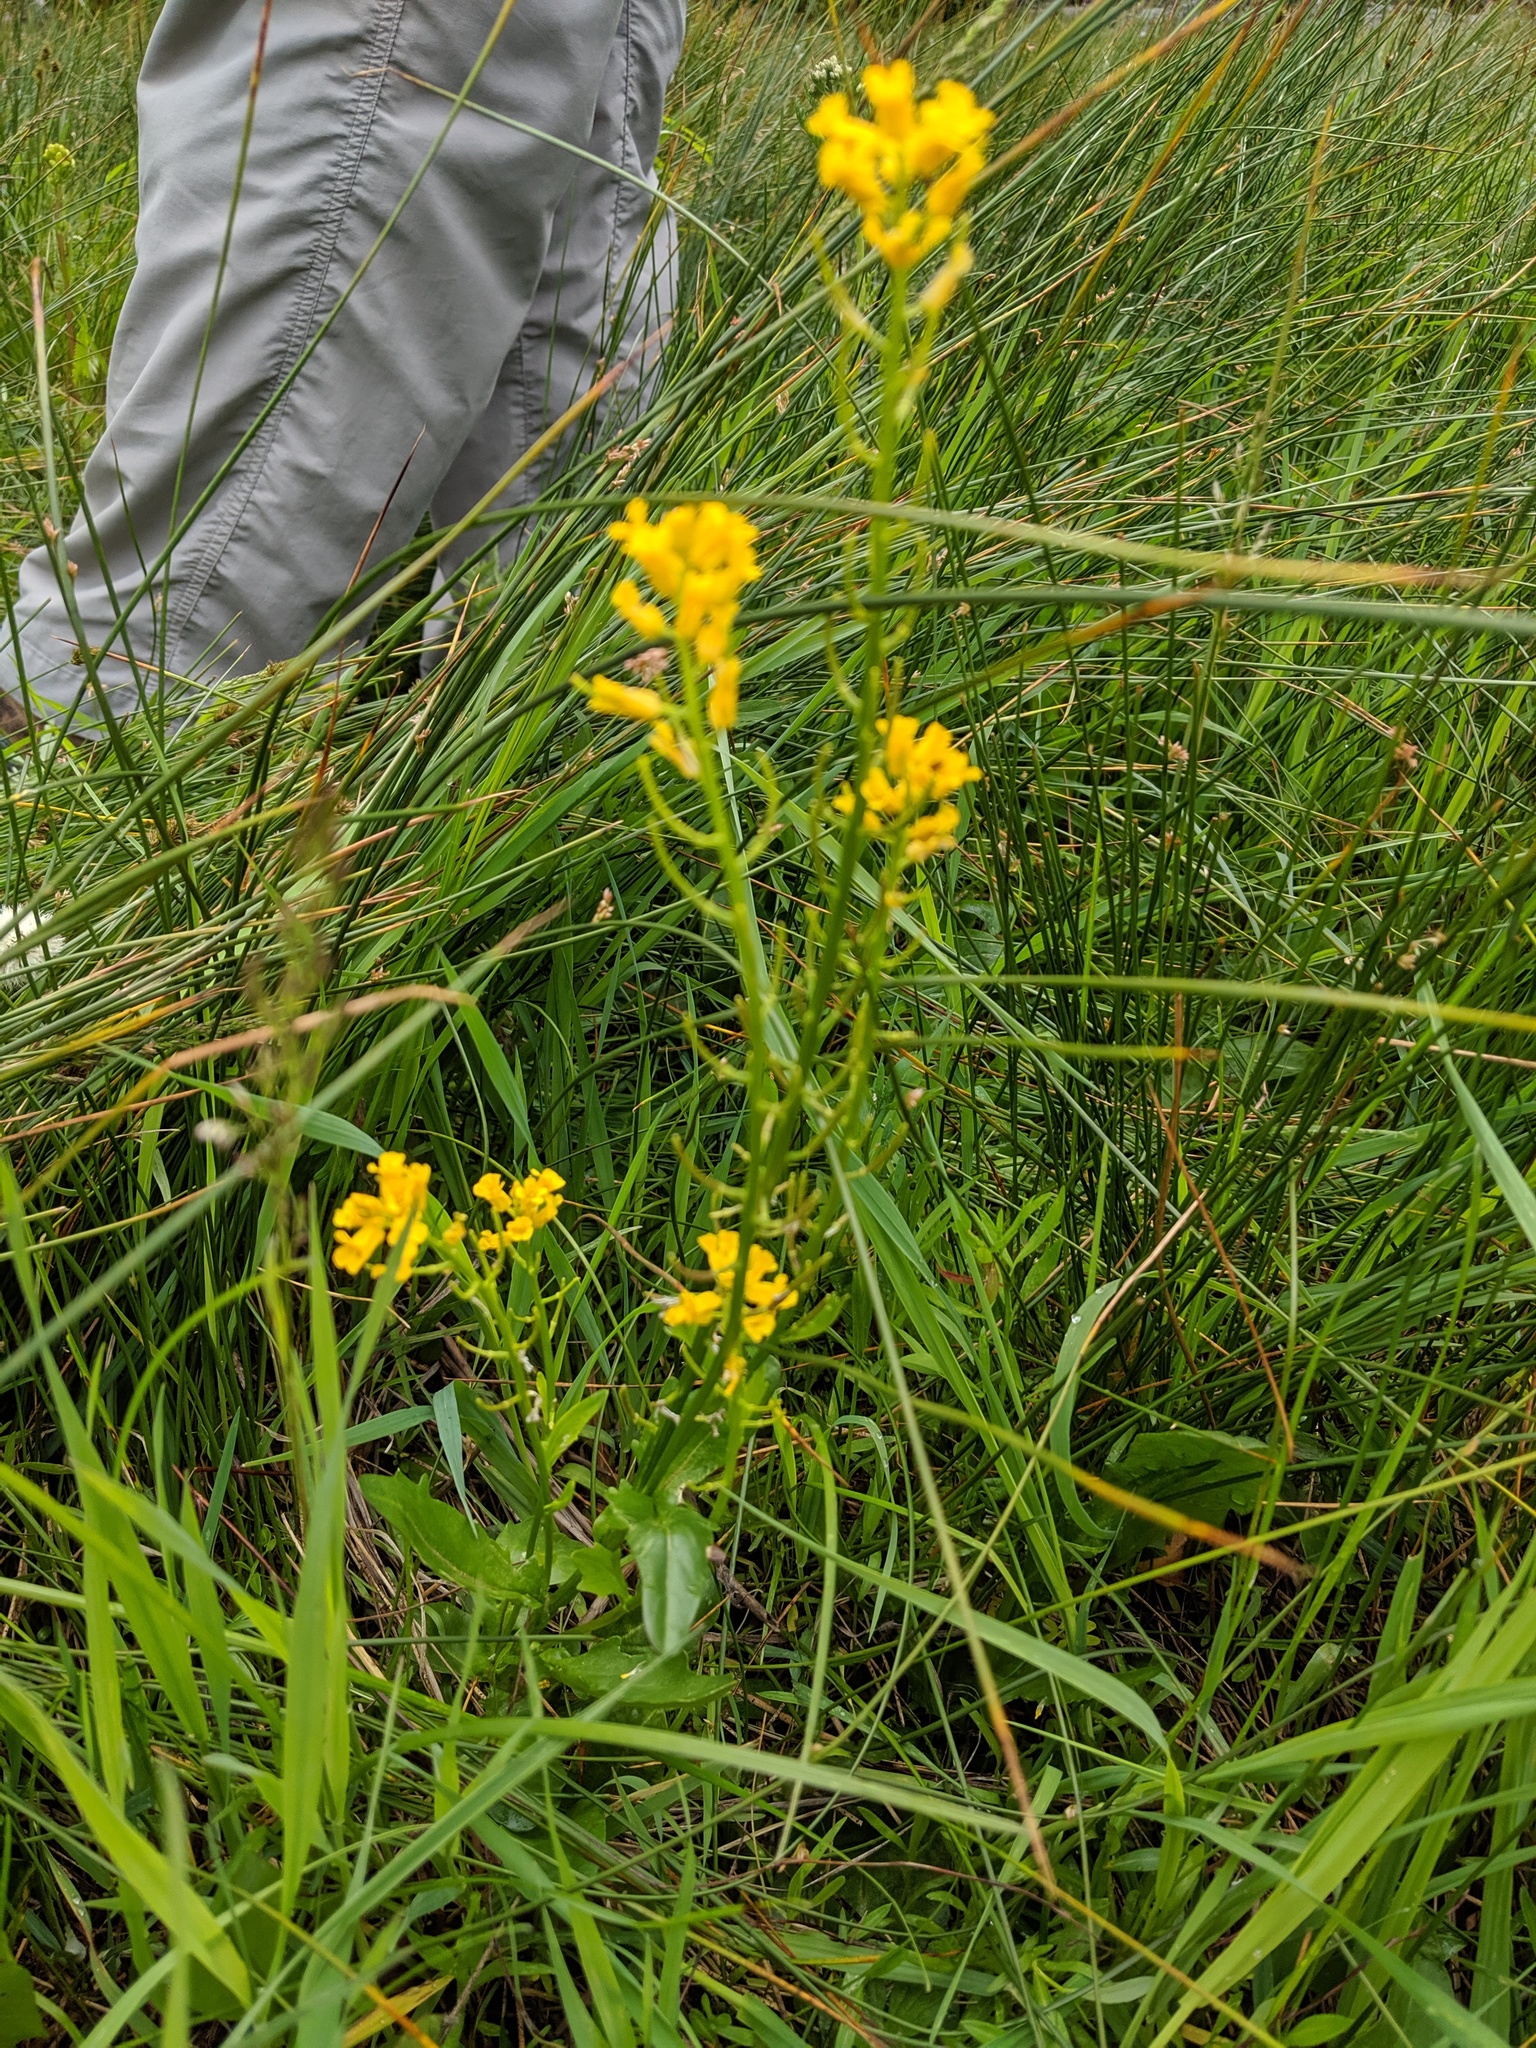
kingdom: Plantae
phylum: Tracheophyta
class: Magnoliopsida
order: Brassicales
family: Brassicaceae
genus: Barbarea
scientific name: Barbarea orthoceras
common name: American wintercress
